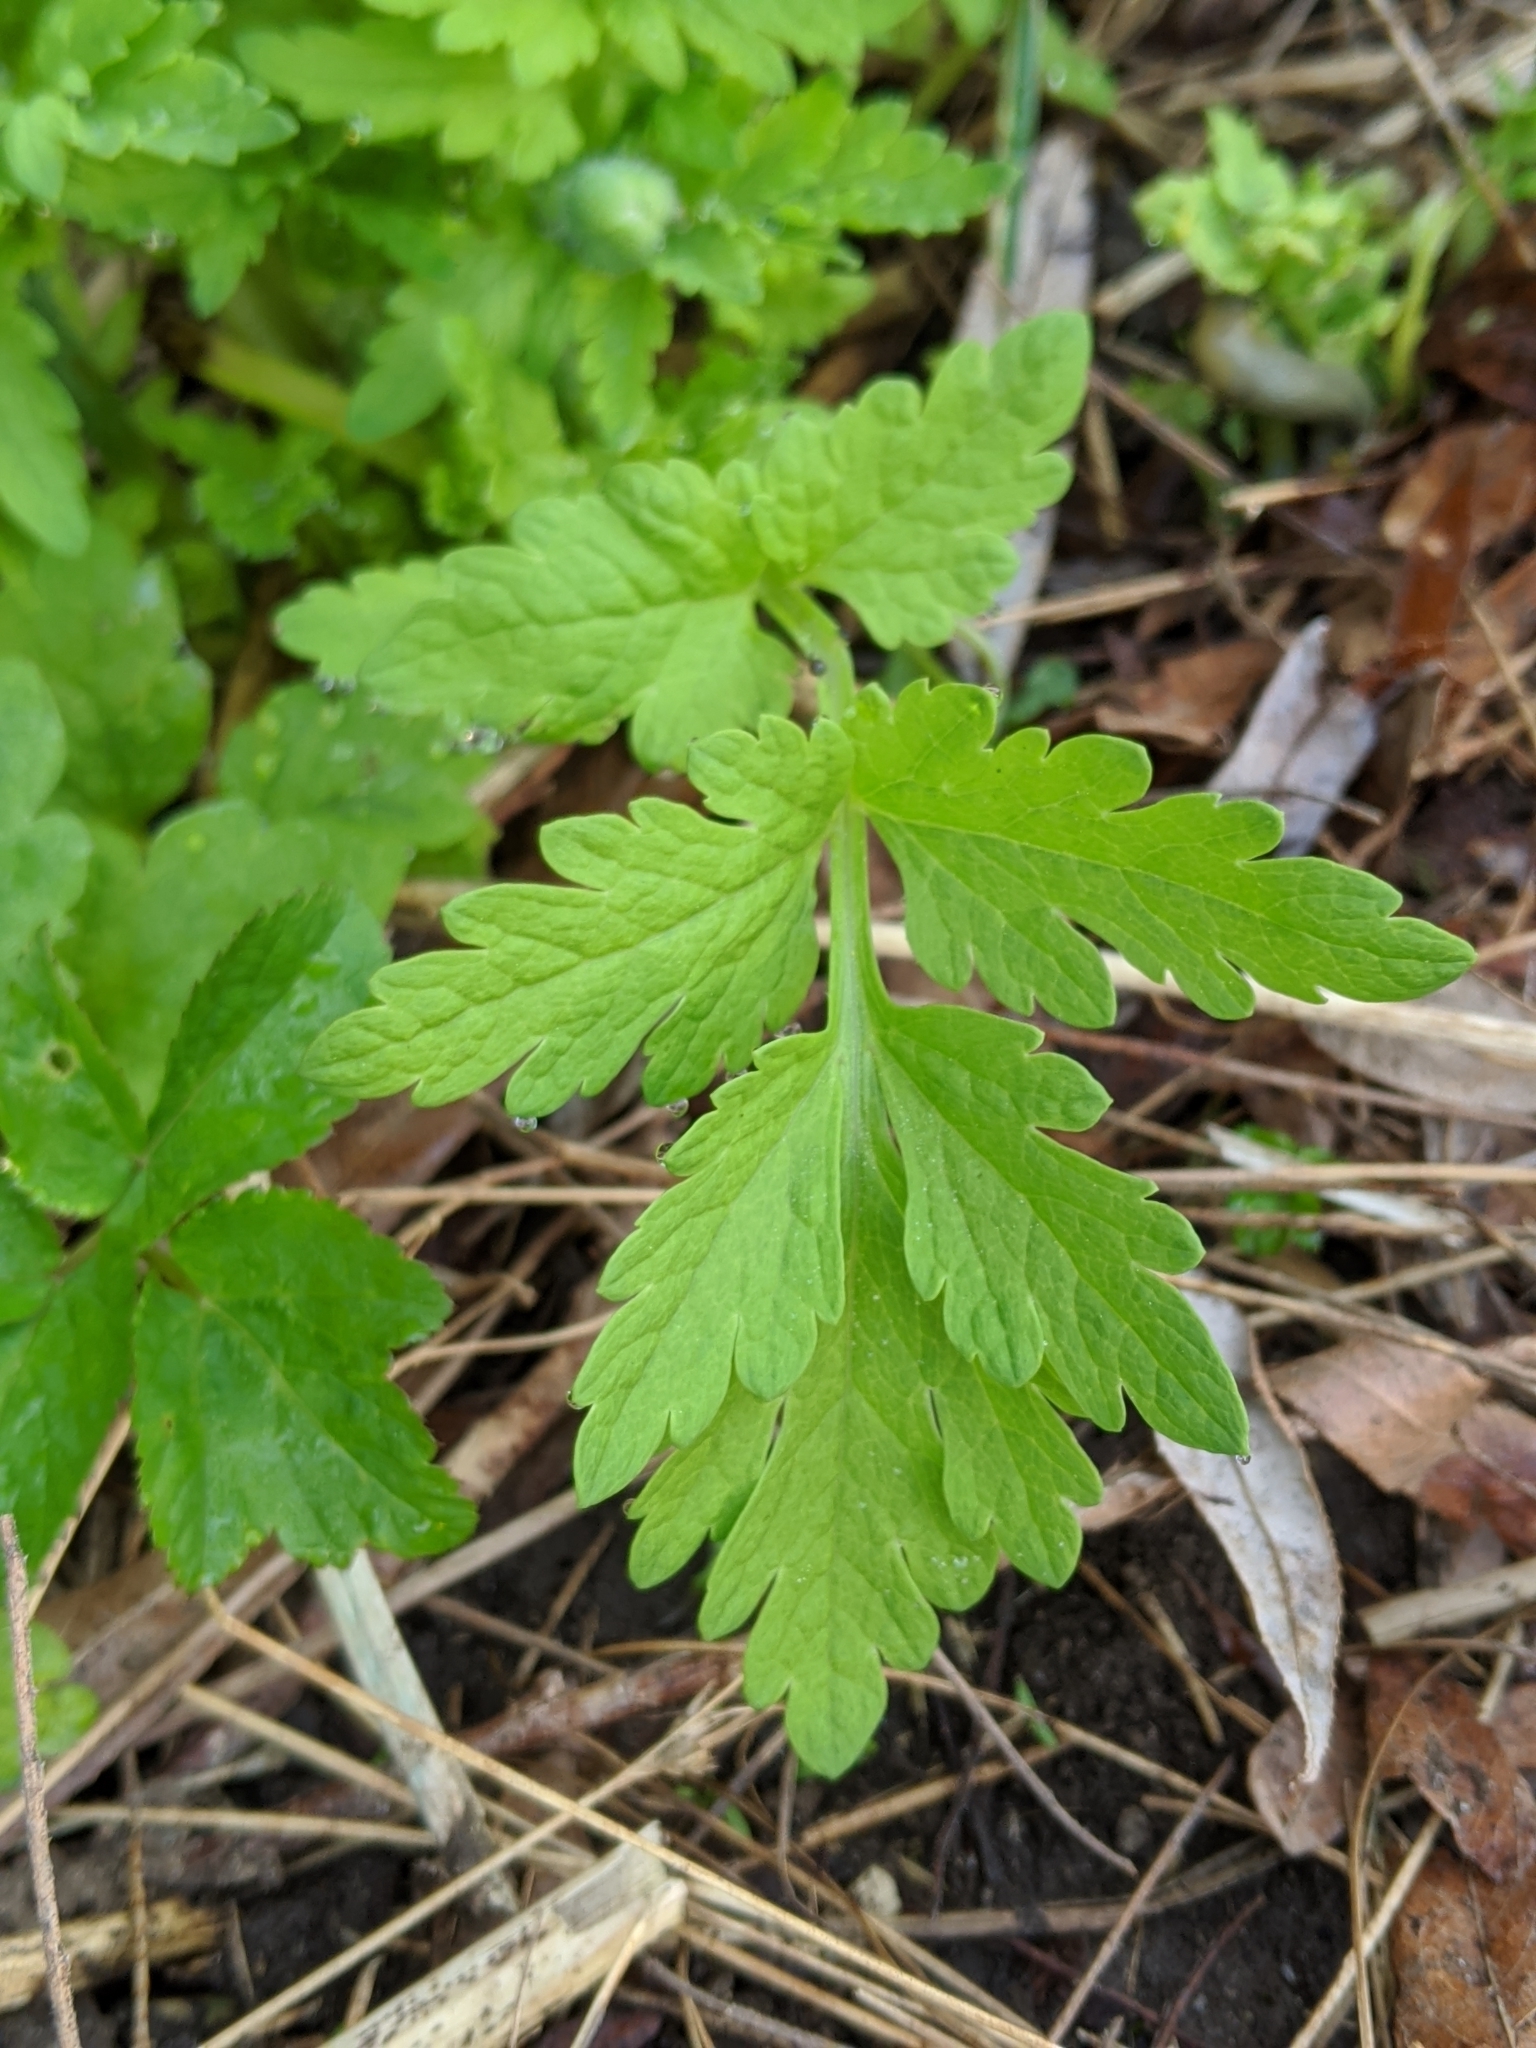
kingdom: Plantae
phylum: Tracheophyta
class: Magnoliopsida
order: Ranunculales
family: Papaveraceae
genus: Papaver
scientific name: Papaver cambricum
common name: Poppy
